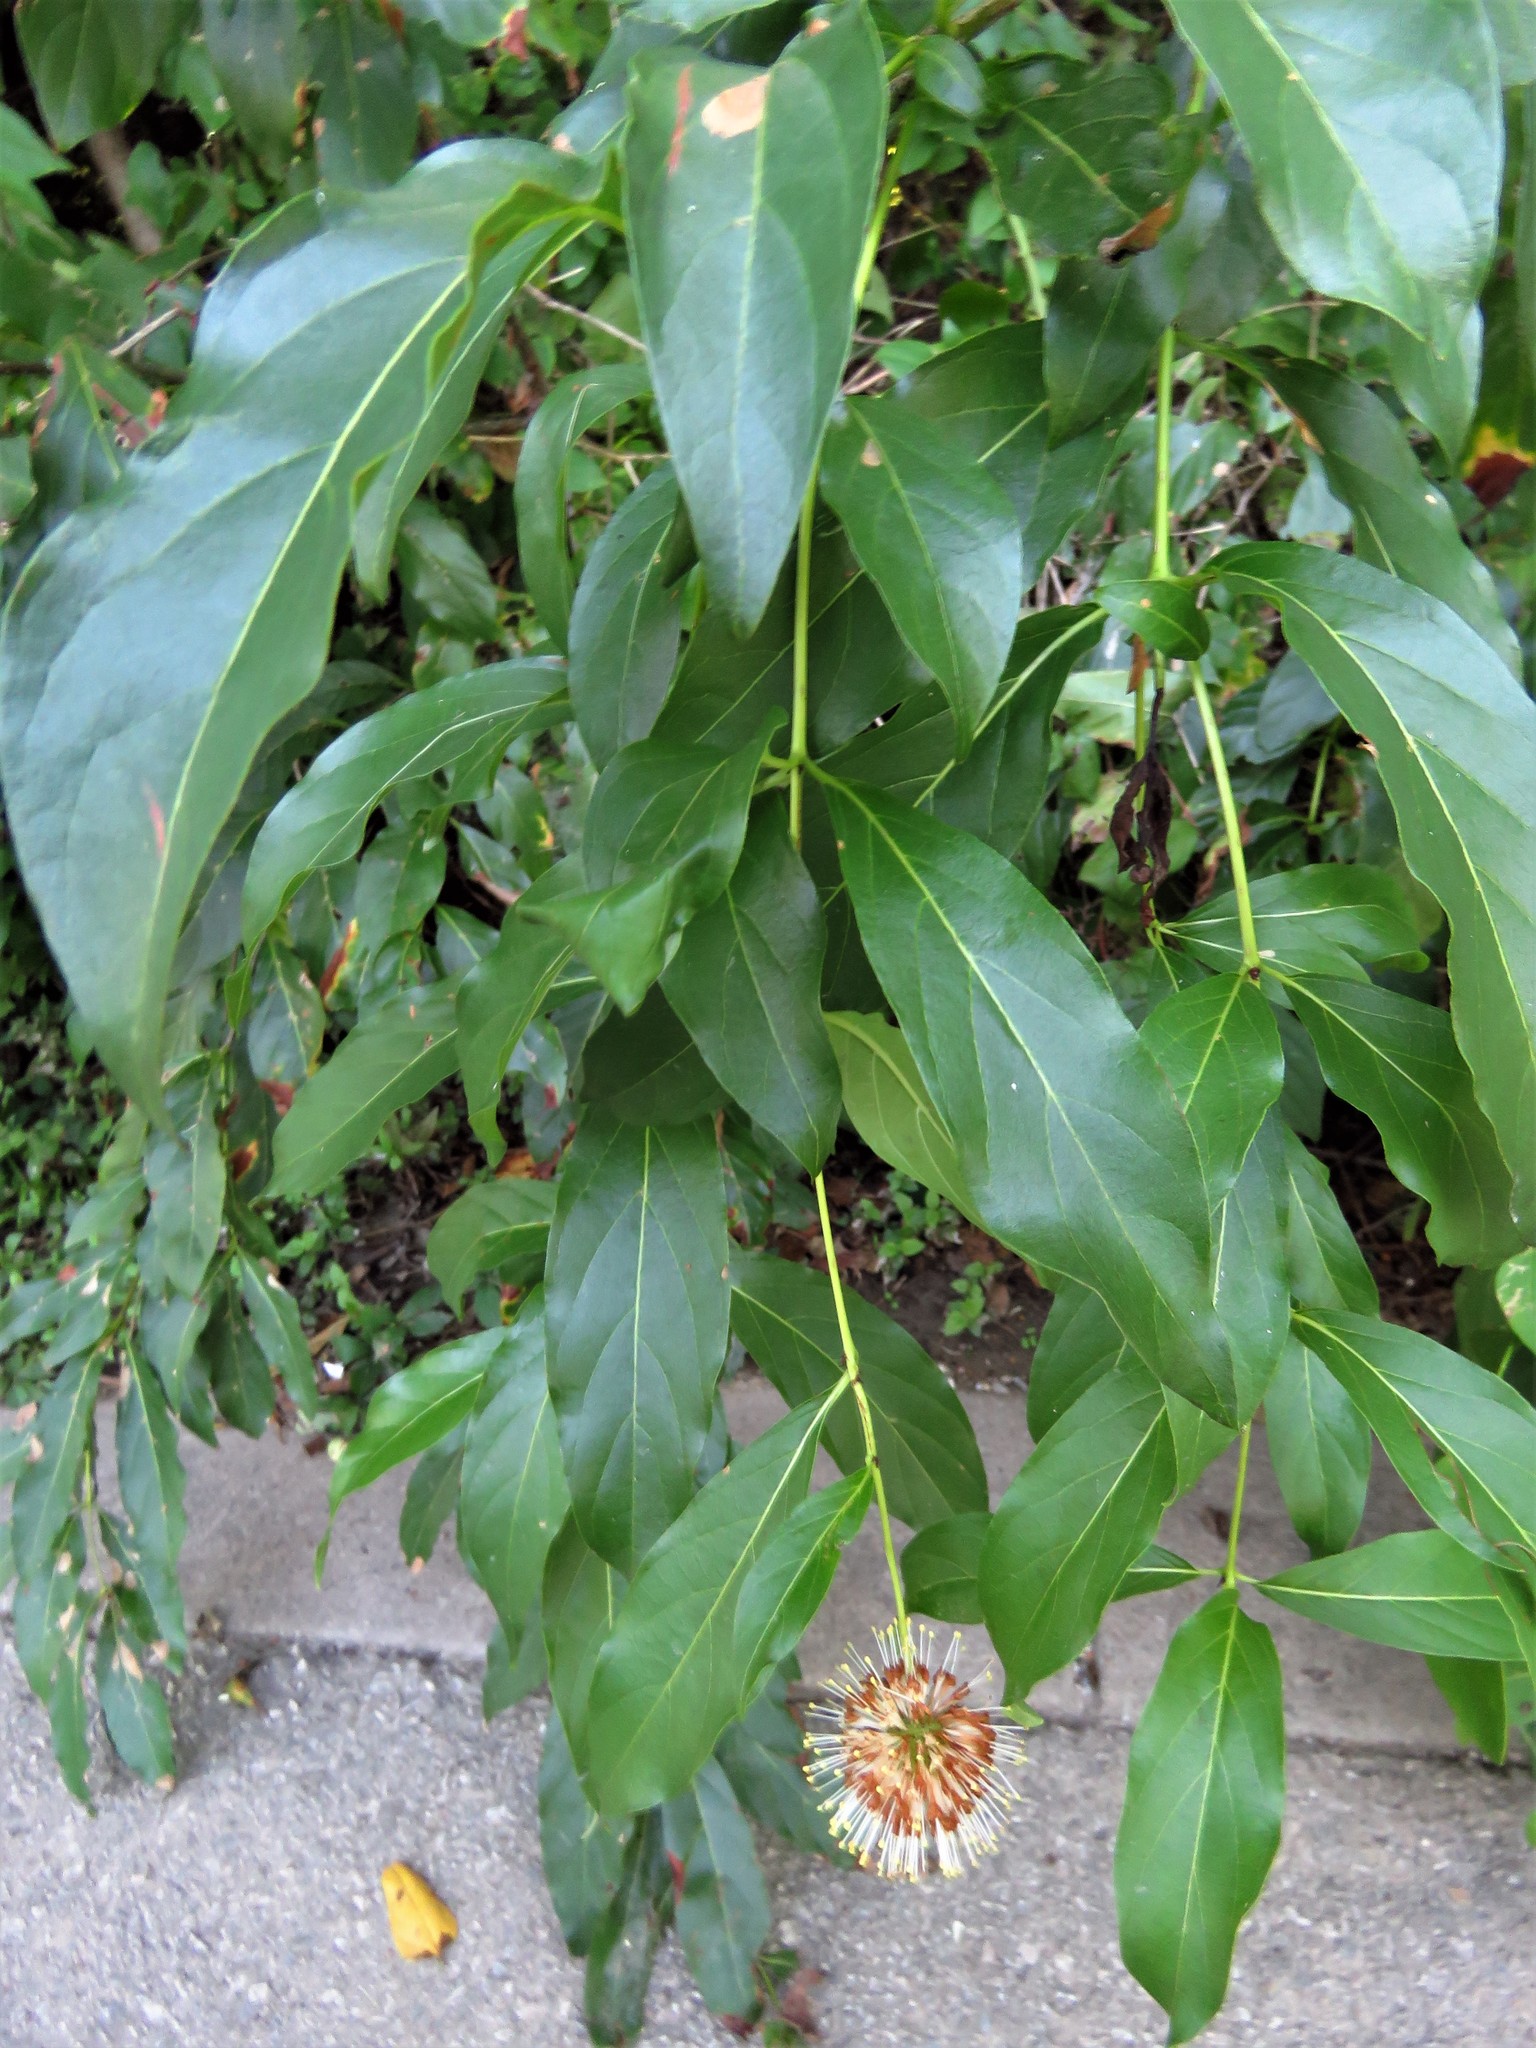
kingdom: Plantae
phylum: Tracheophyta
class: Magnoliopsida
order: Gentianales
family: Rubiaceae
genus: Cephalanthus
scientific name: Cephalanthus occidentalis
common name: Button-willow
